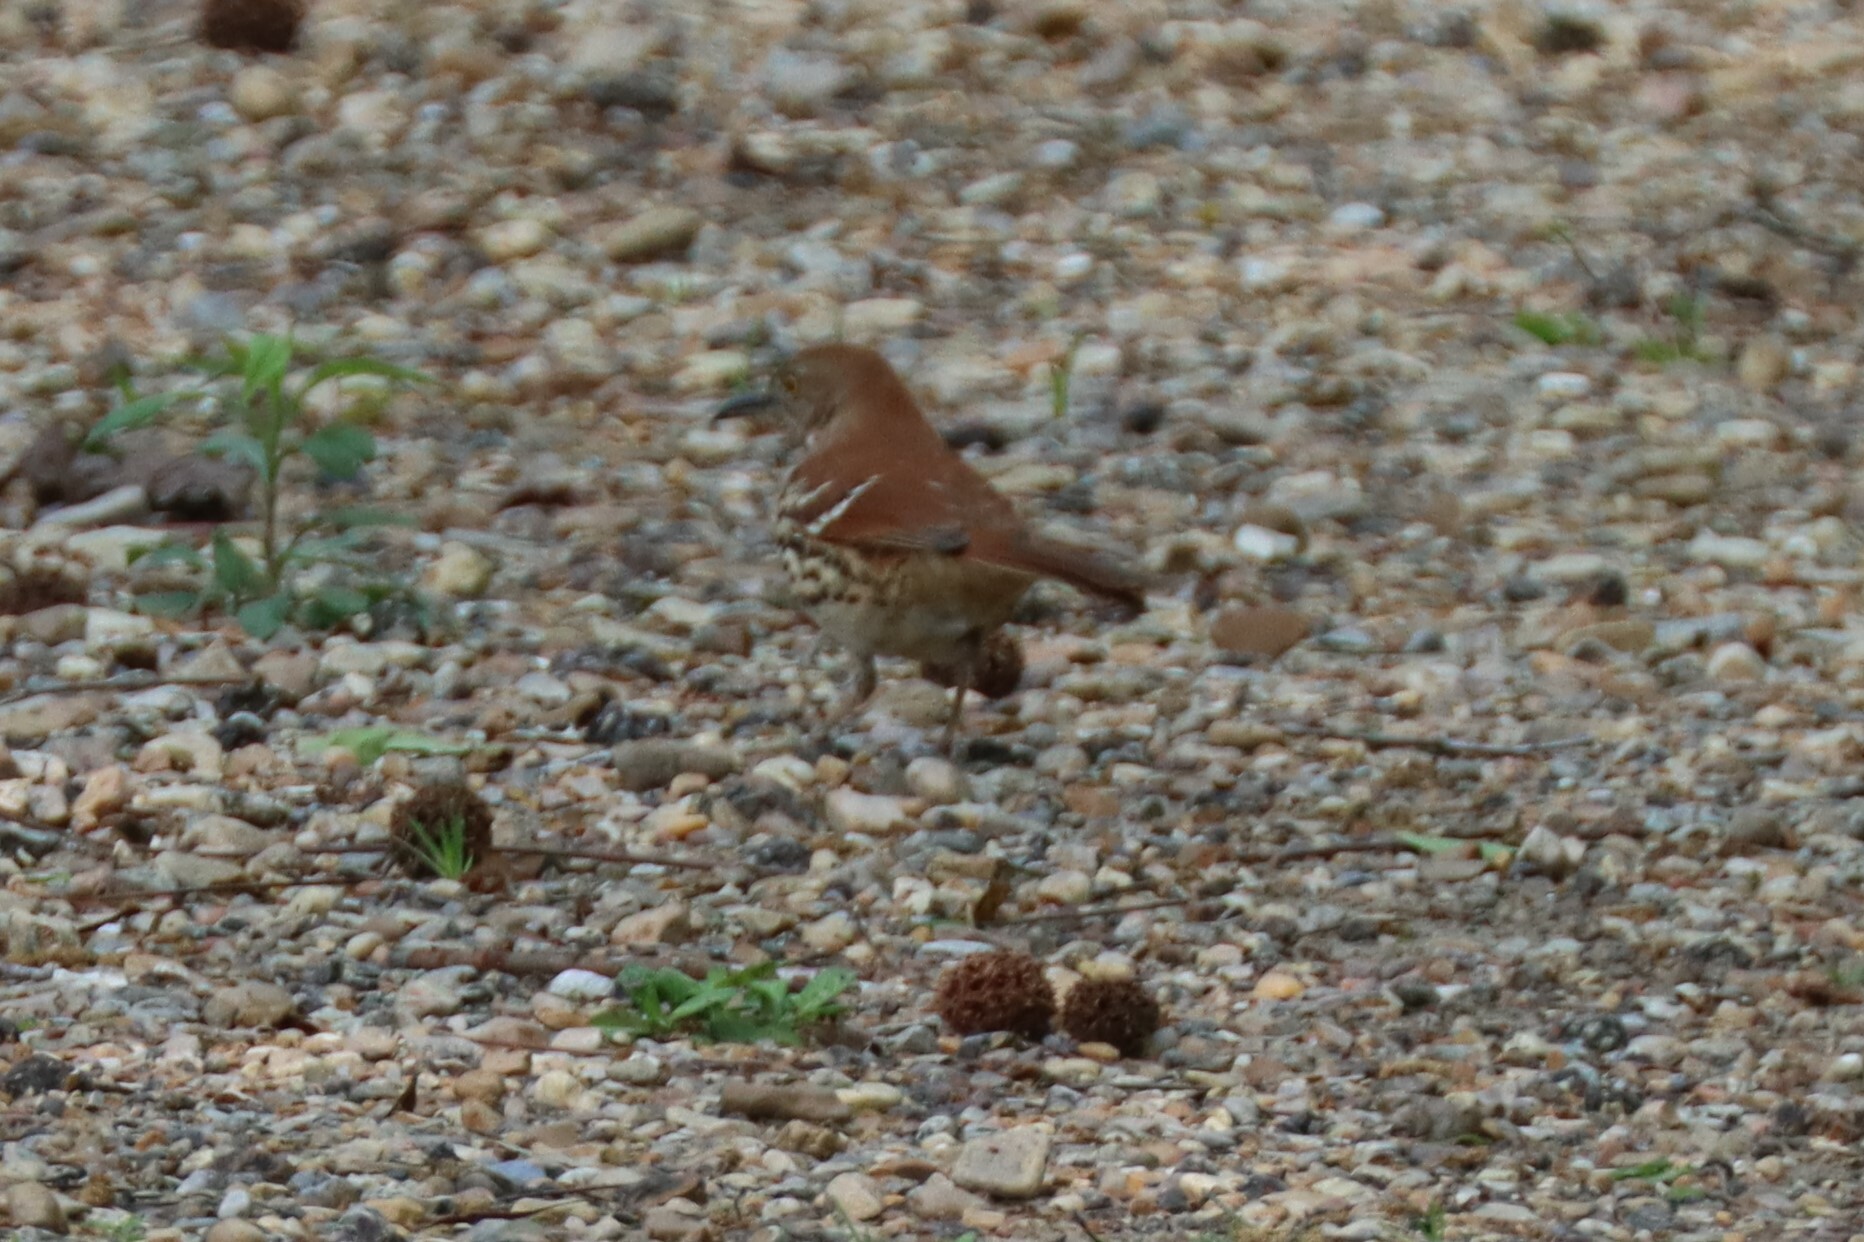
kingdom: Animalia
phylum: Chordata
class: Aves
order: Passeriformes
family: Mimidae
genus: Toxostoma
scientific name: Toxostoma rufum
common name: Brown thrasher
